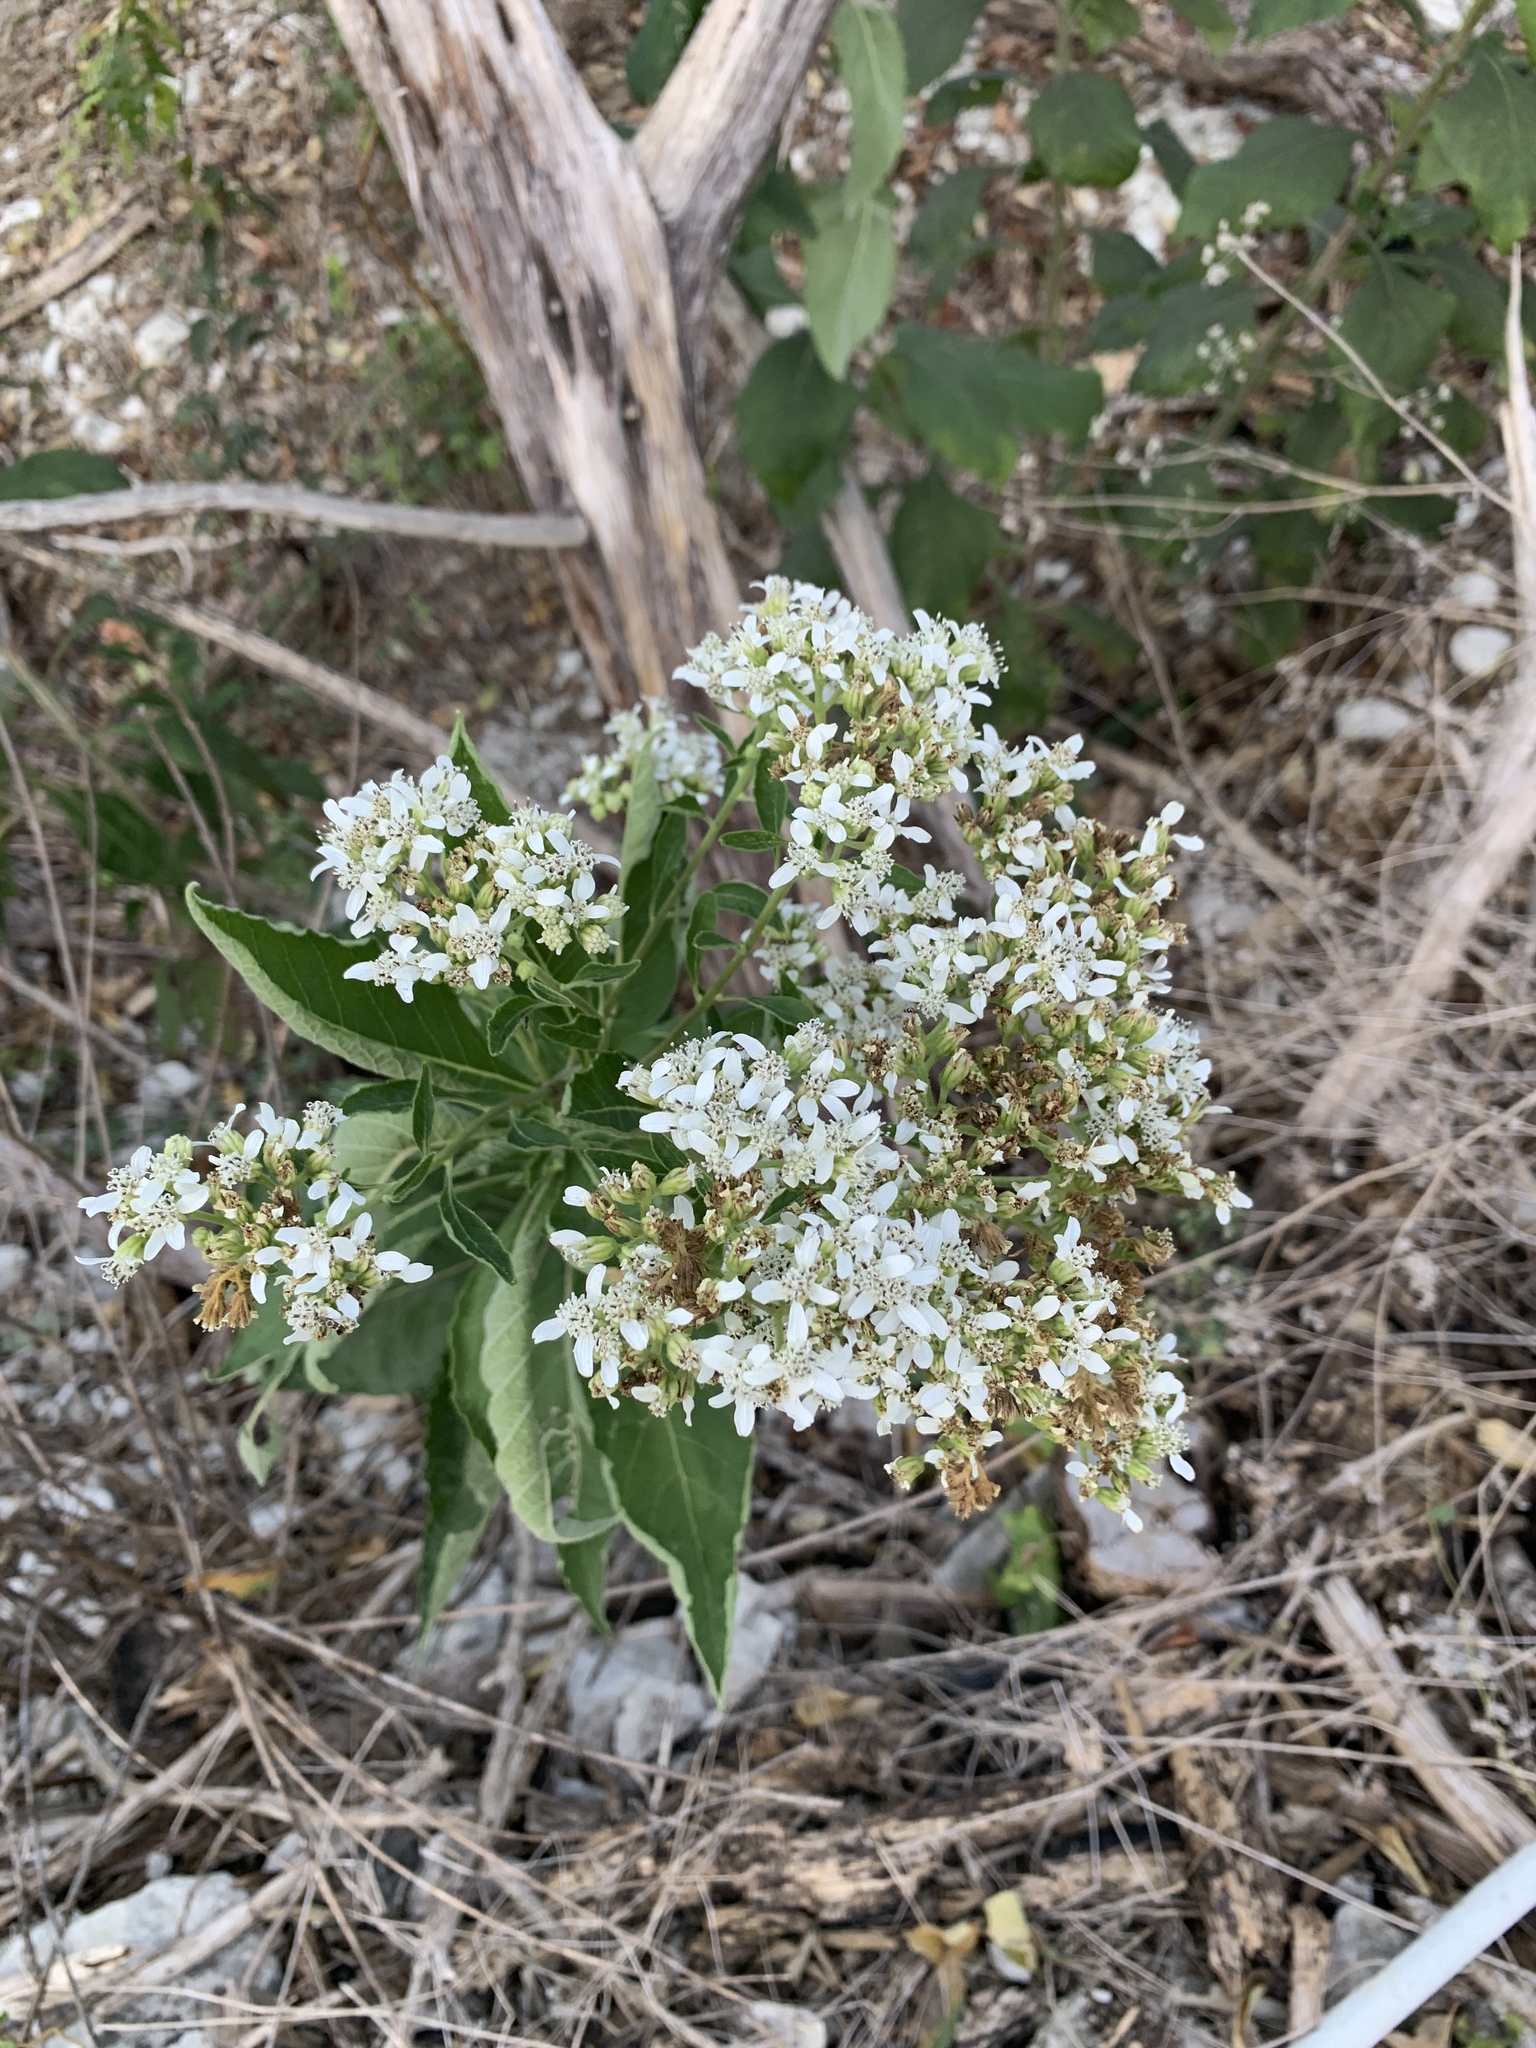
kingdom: Plantae
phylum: Tracheophyta
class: Magnoliopsida
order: Asterales
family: Asteraceae
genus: Verbesina
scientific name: Verbesina virginica
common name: Frostweed
